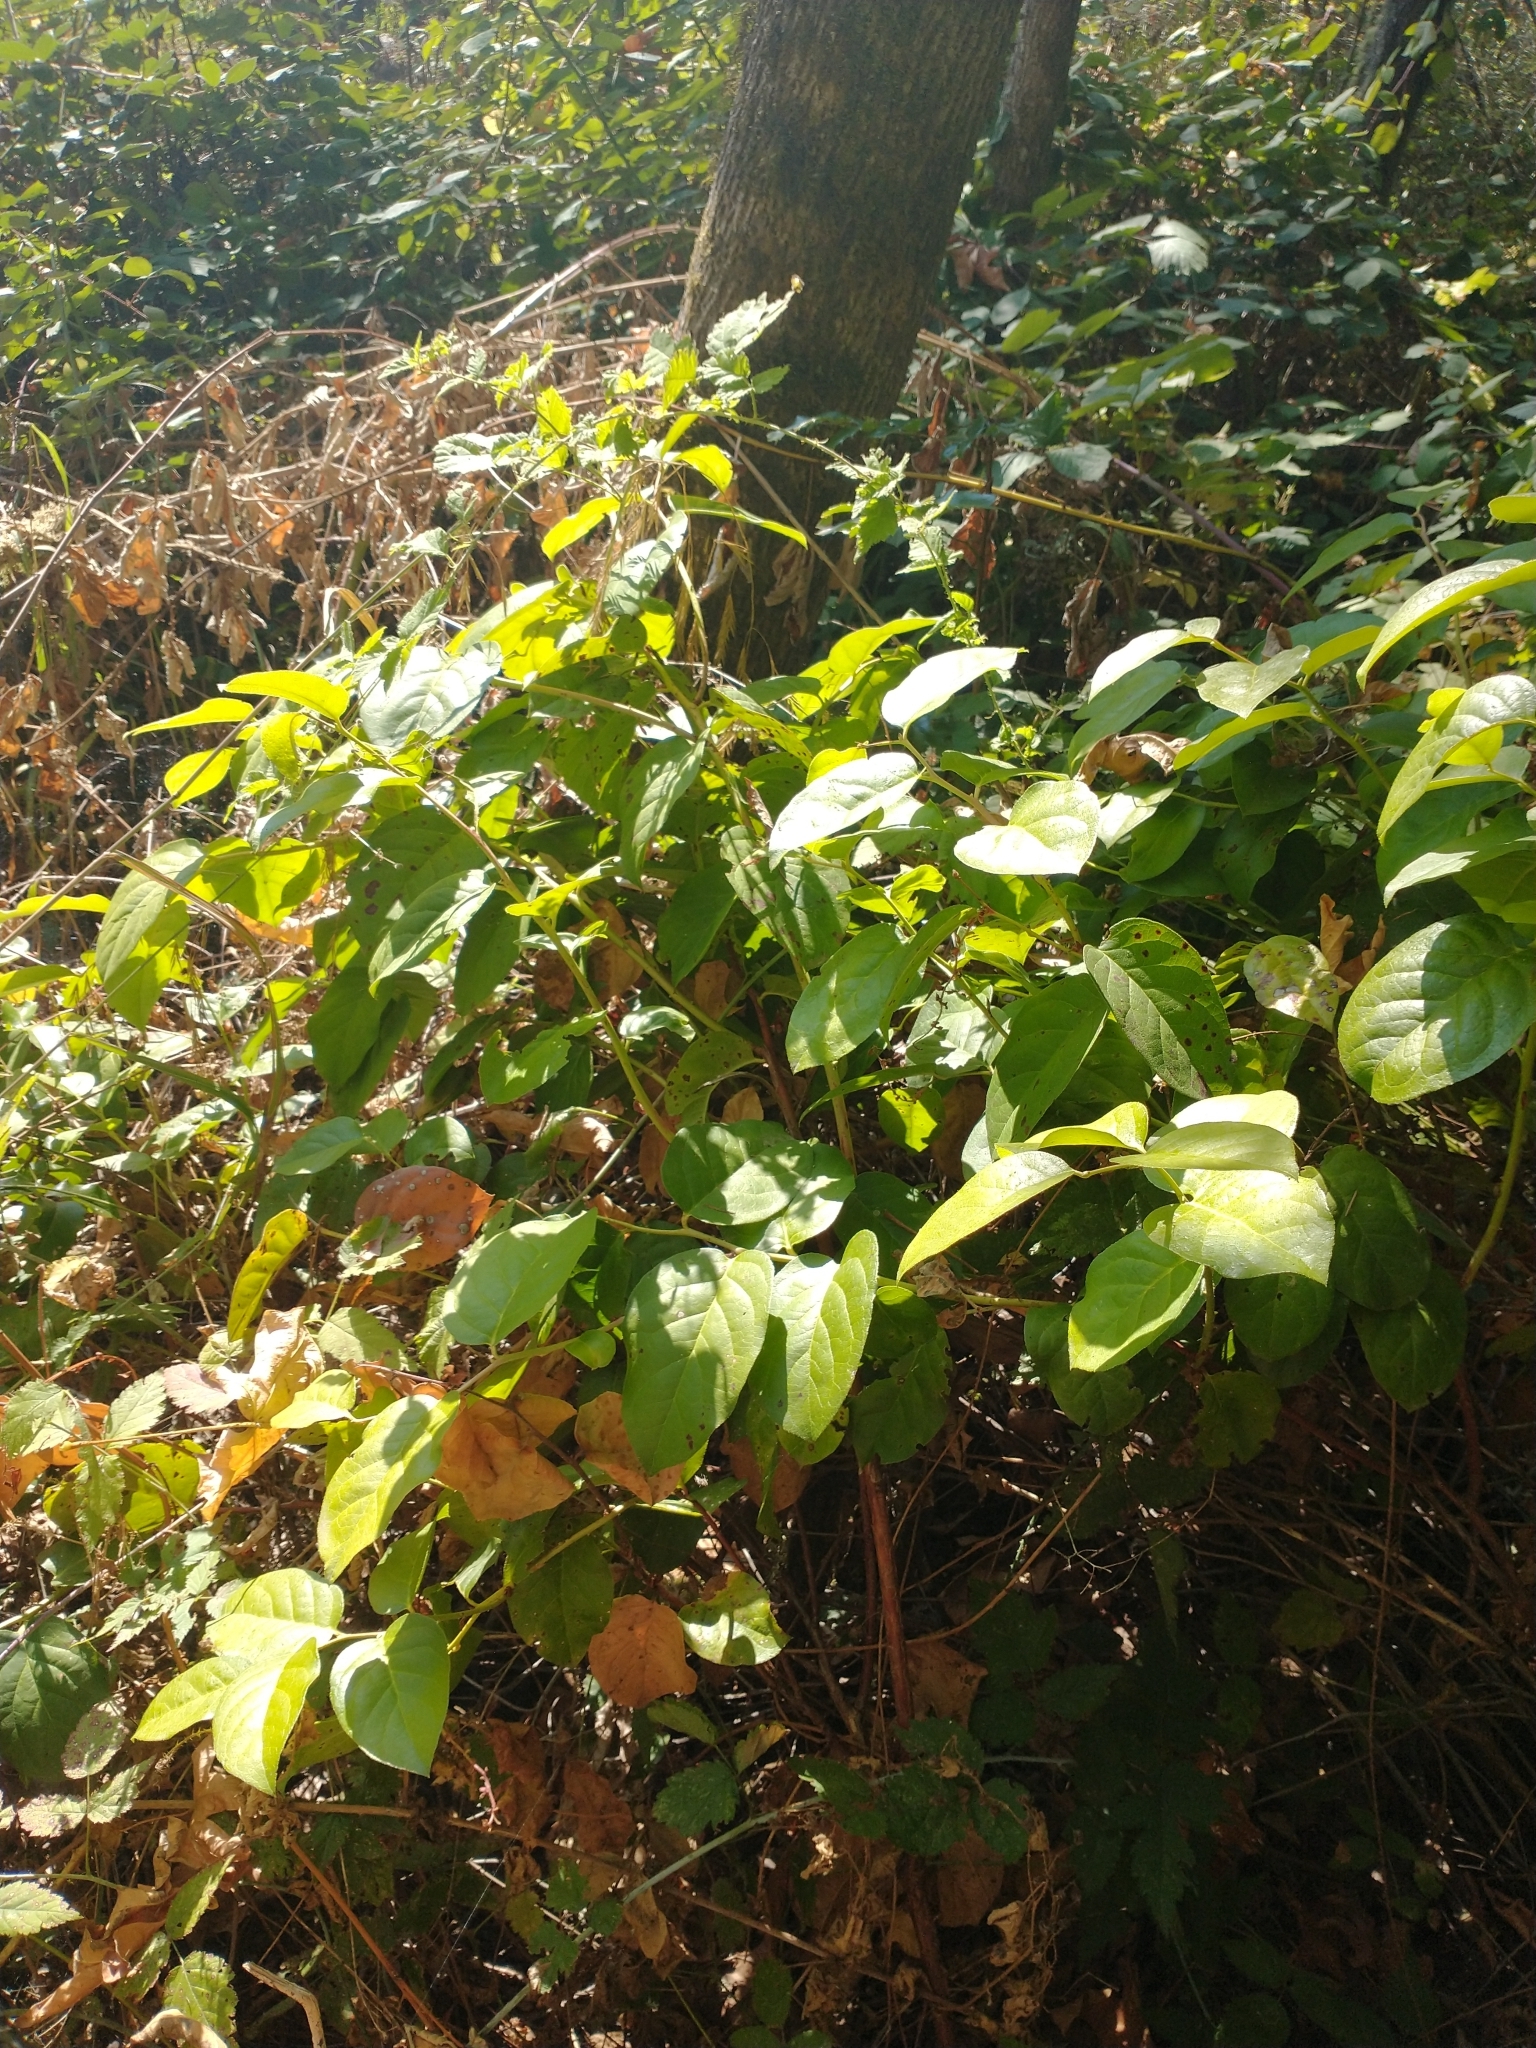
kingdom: Plantae
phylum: Tracheophyta
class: Magnoliopsida
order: Ericales
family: Ericaceae
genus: Gaultheria
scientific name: Gaultheria shallon
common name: Shallon
